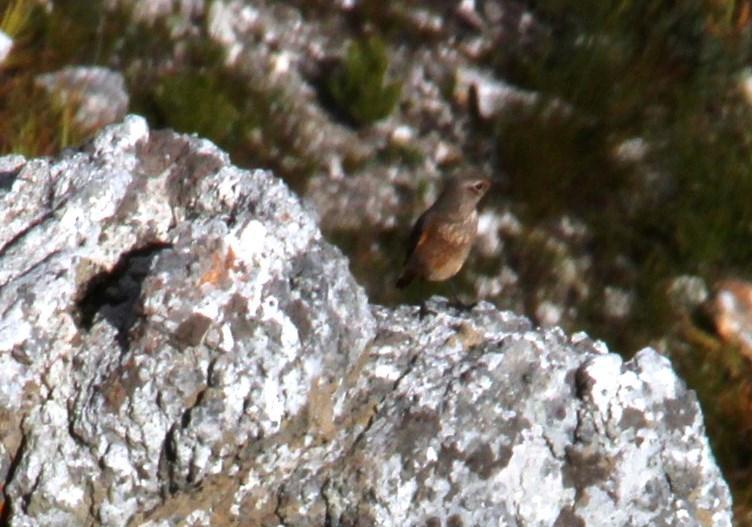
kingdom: Animalia
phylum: Chordata
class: Aves
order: Passeriformes
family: Muscicapidae
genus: Erythropygia
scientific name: Erythropygia coryphoeus
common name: Karoo scrub robin
